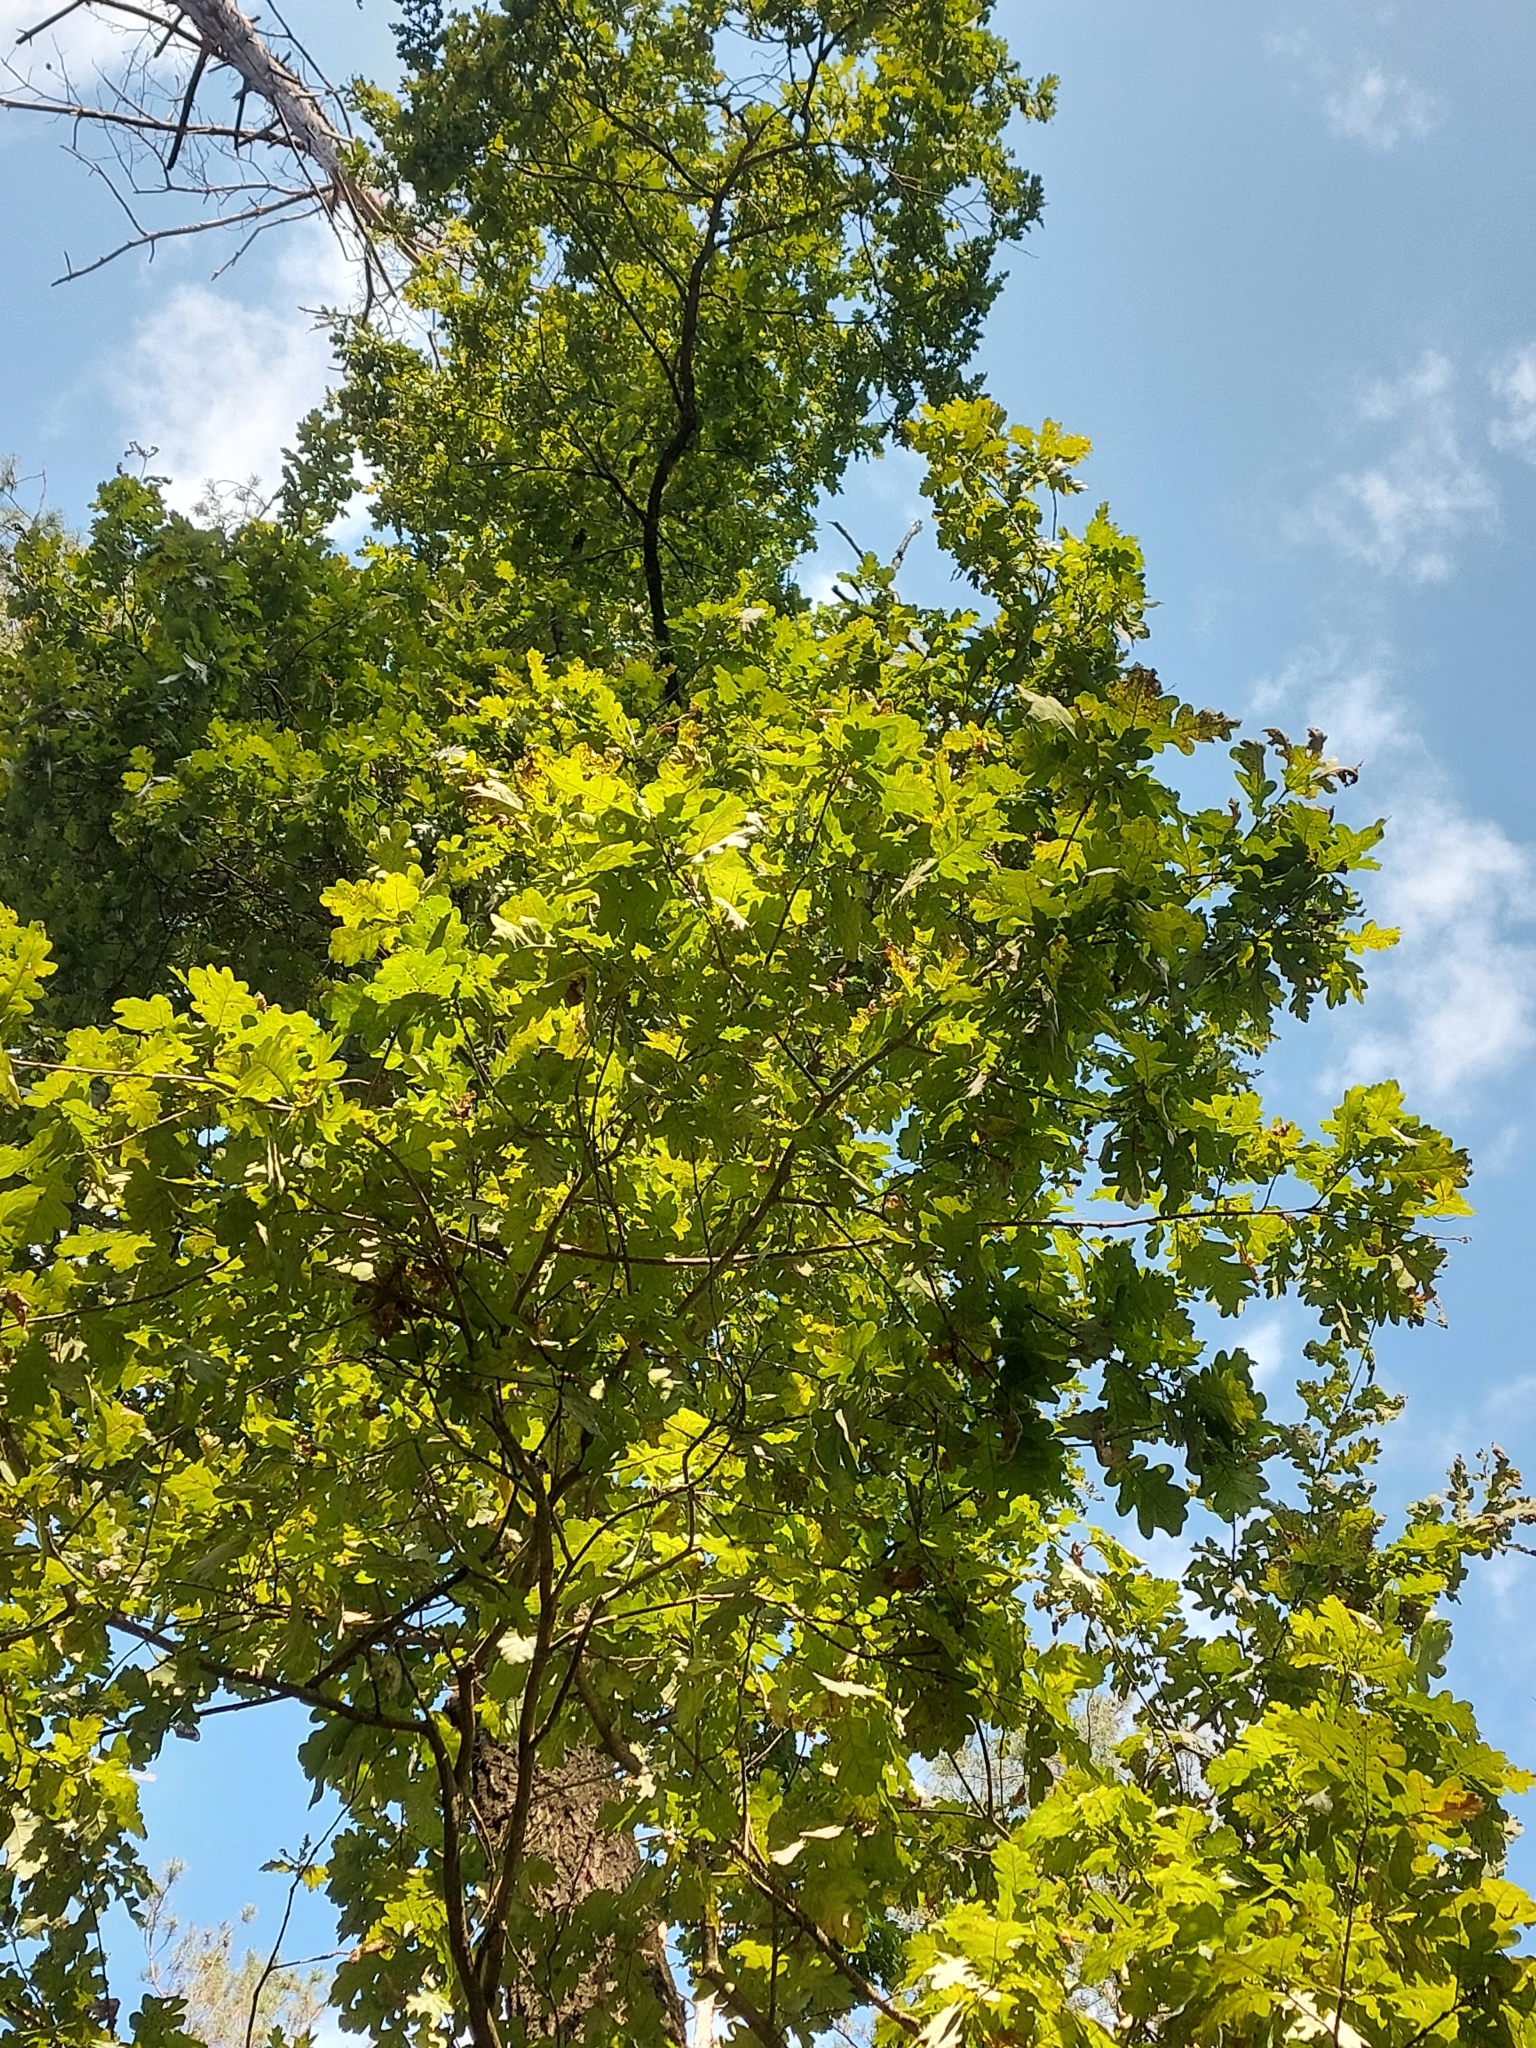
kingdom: Plantae
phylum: Tracheophyta
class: Magnoliopsida
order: Fagales
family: Fagaceae
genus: Quercus
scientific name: Quercus robur
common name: Pedunculate oak
